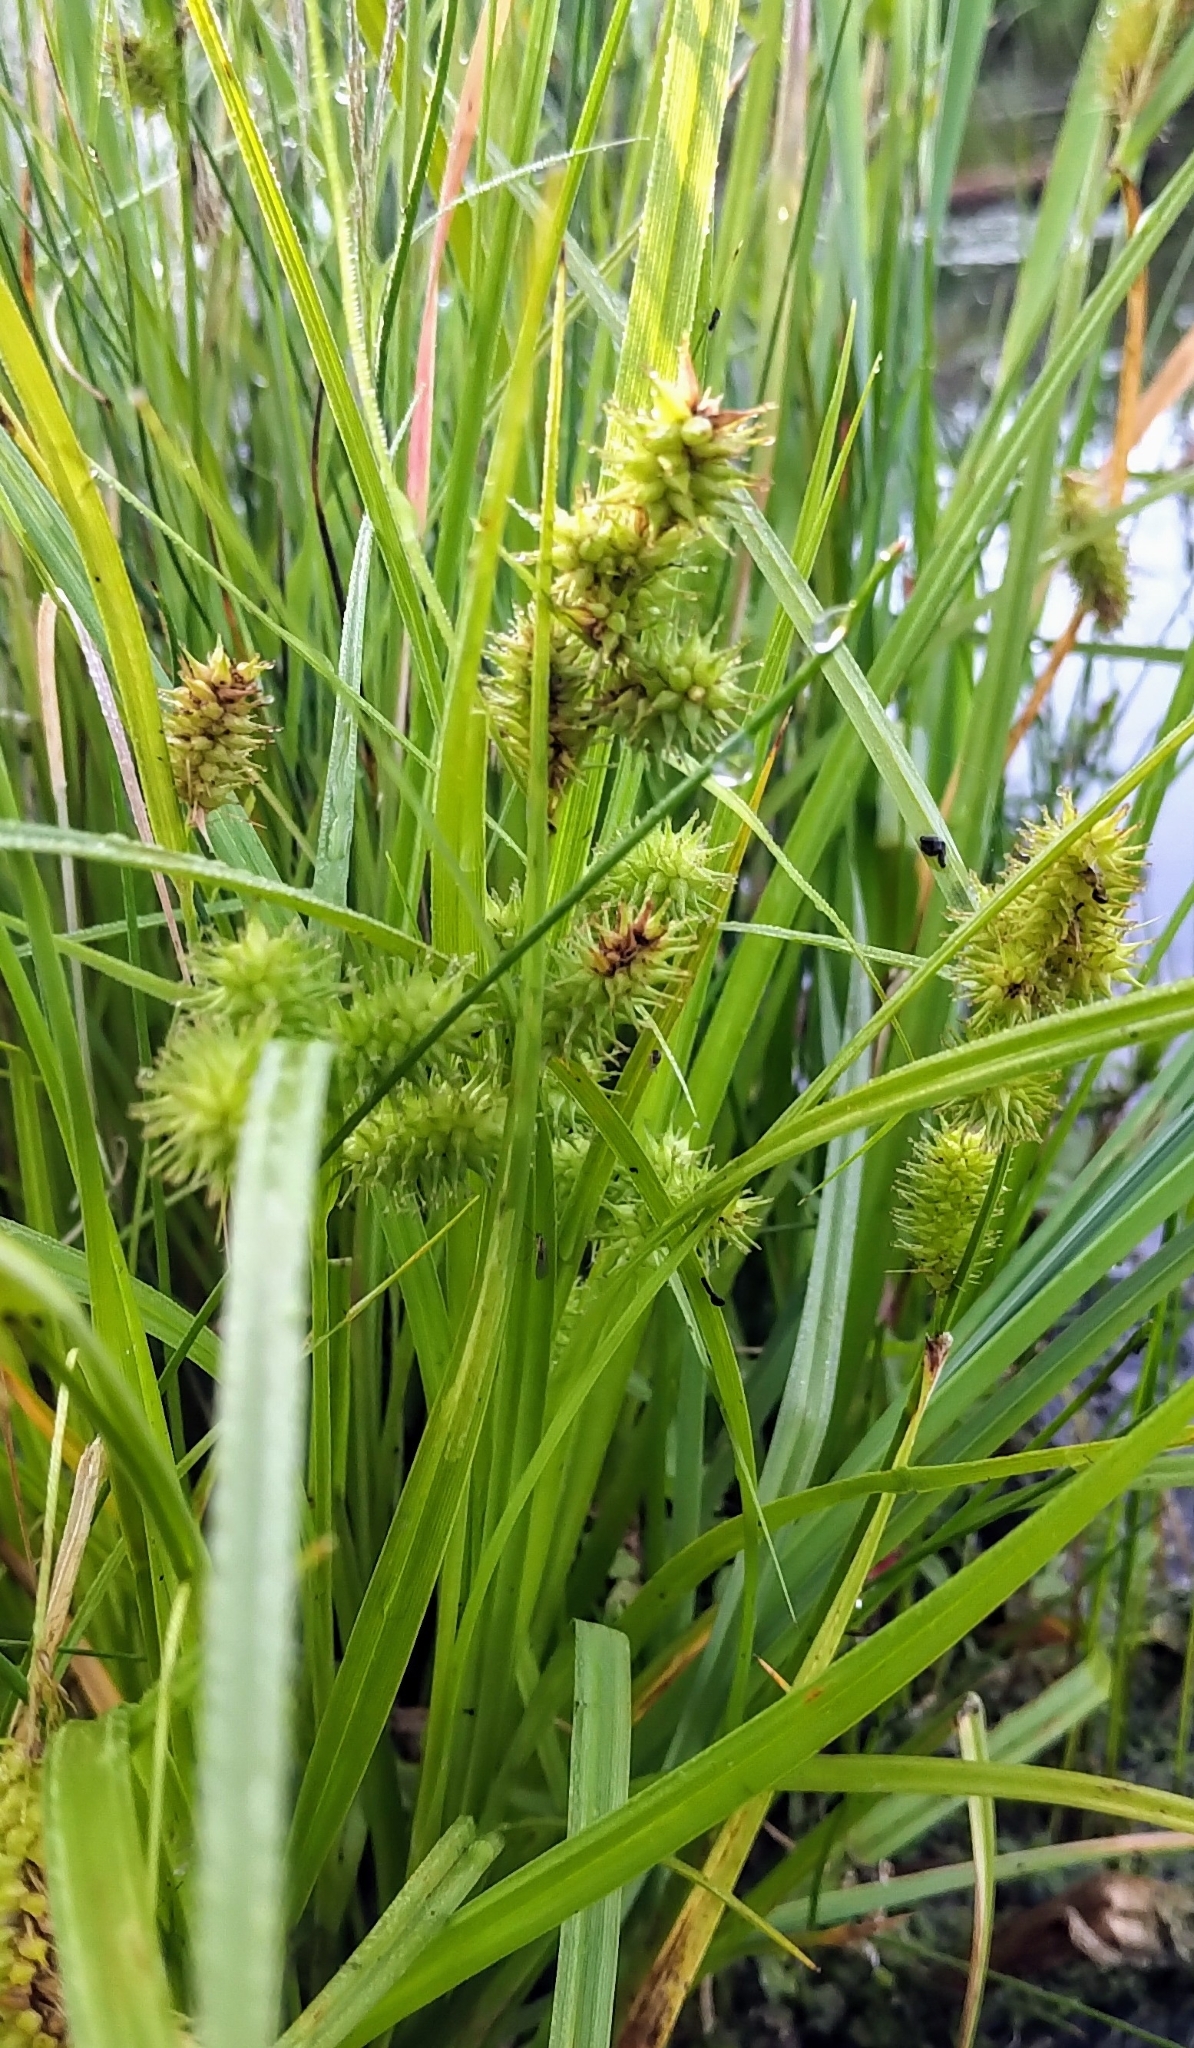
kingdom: Plantae
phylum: Tracheophyta
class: Liliopsida
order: Poales
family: Cyperaceae
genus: Carex
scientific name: Carex utriculata
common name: Beaked sedge
